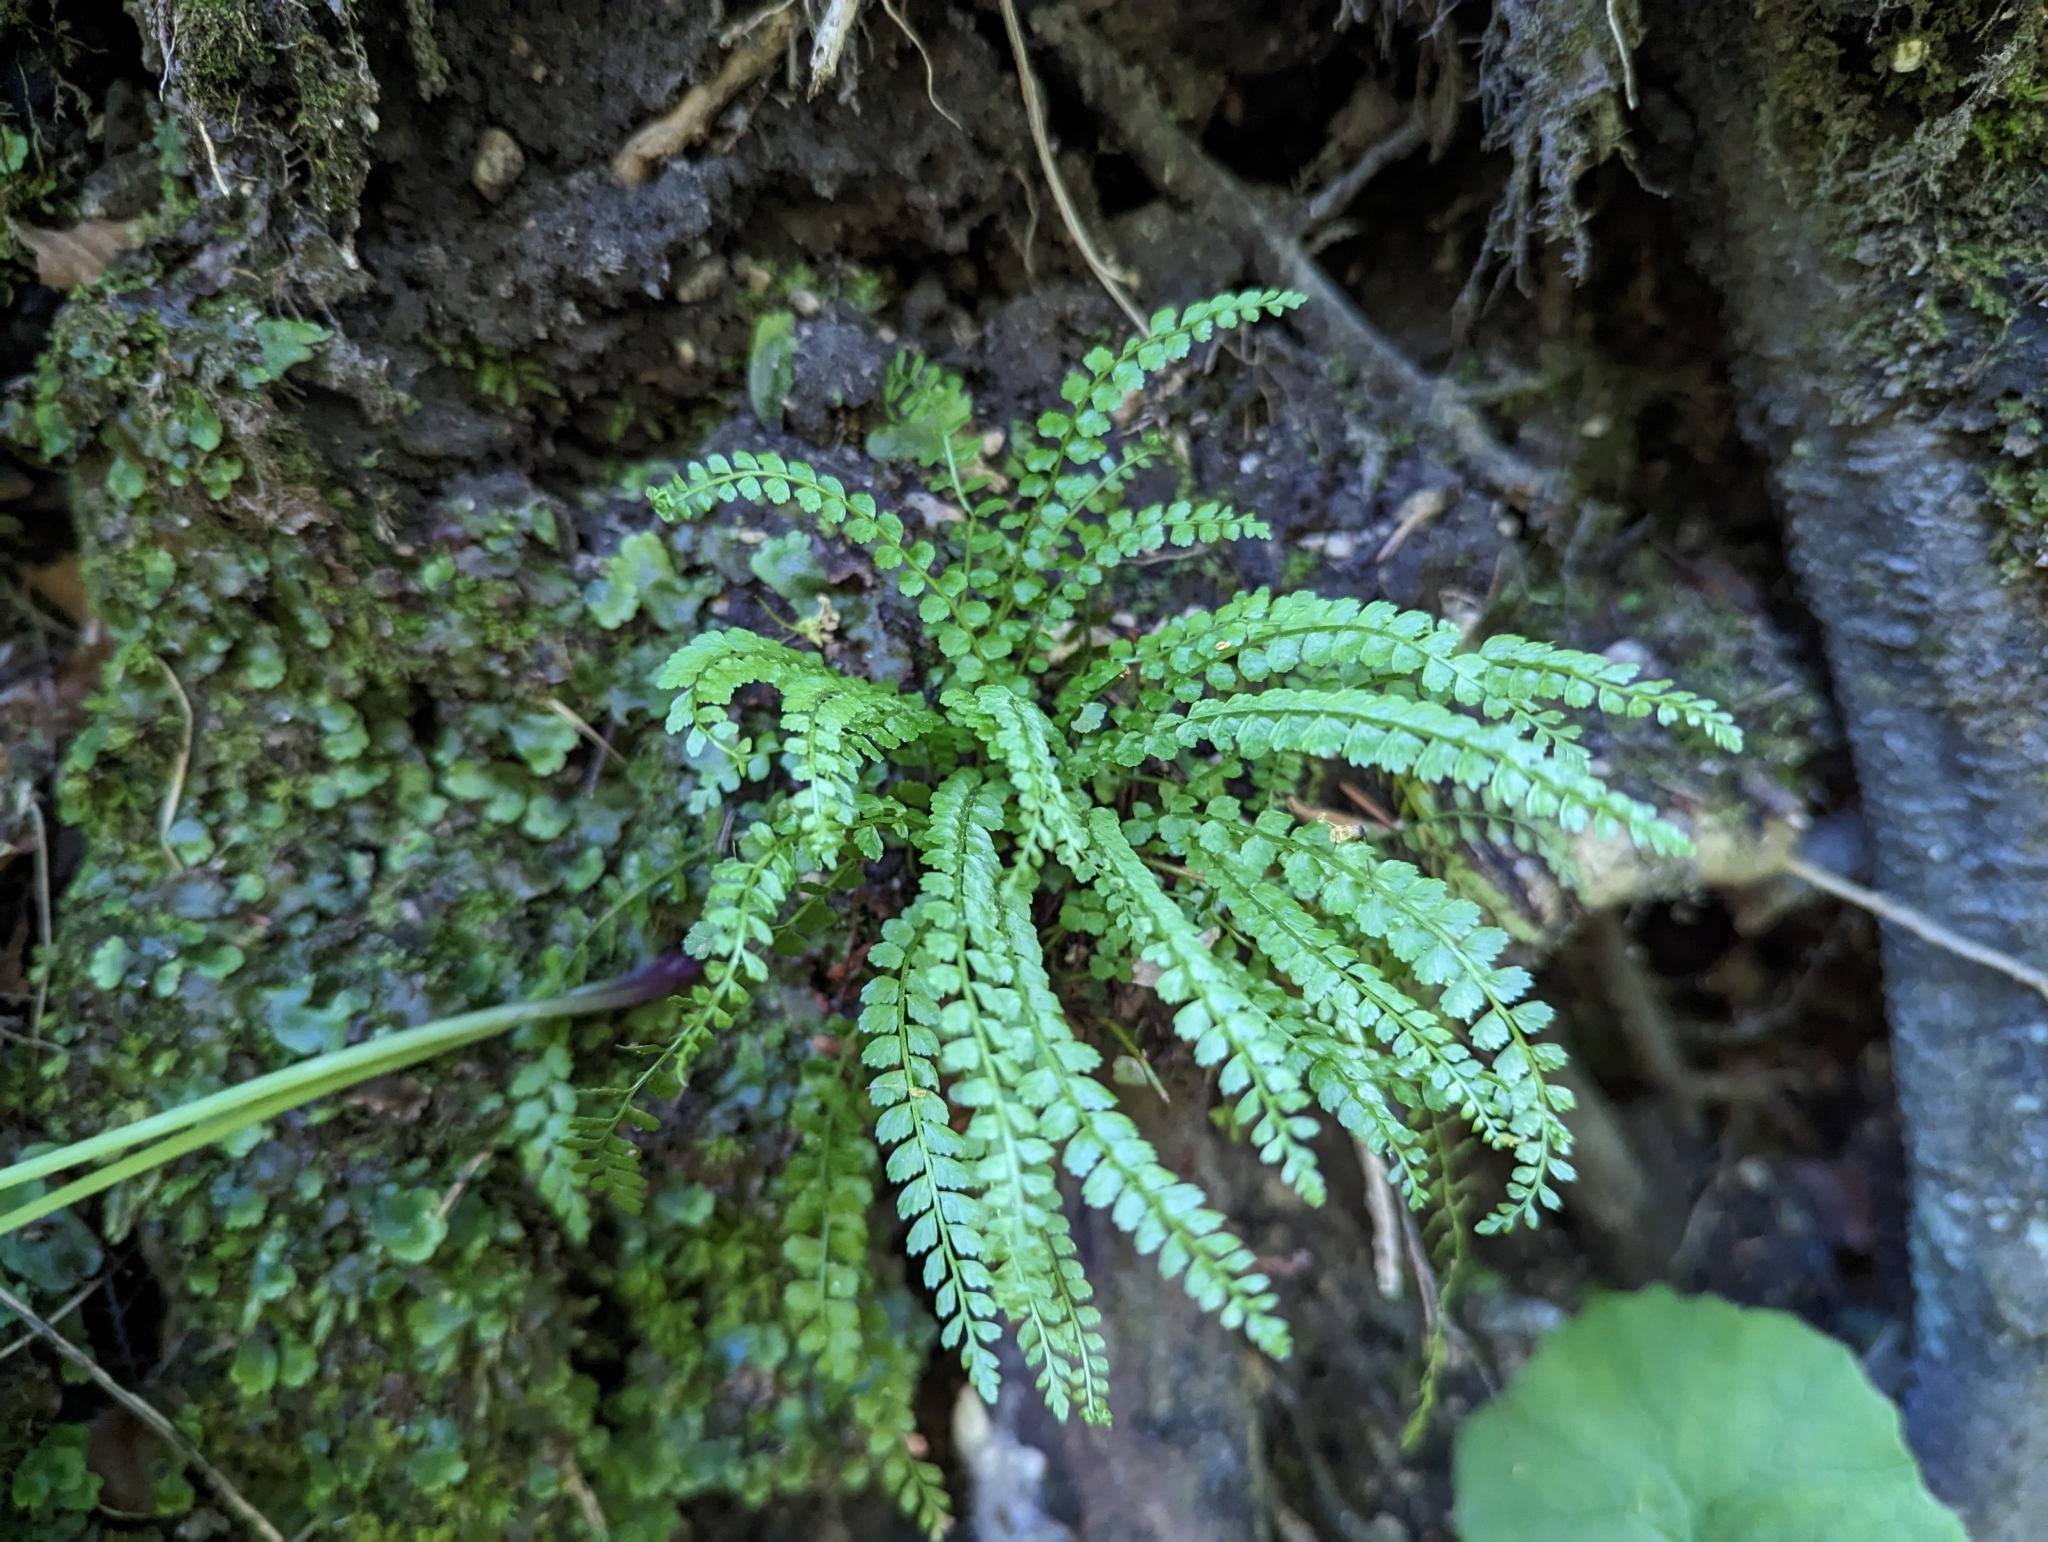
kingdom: Plantae
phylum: Tracheophyta
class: Polypodiopsida
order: Polypodiales
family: Aspleniaceae
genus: Asplenium
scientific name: Asplenium viride
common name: Green spleenwort
